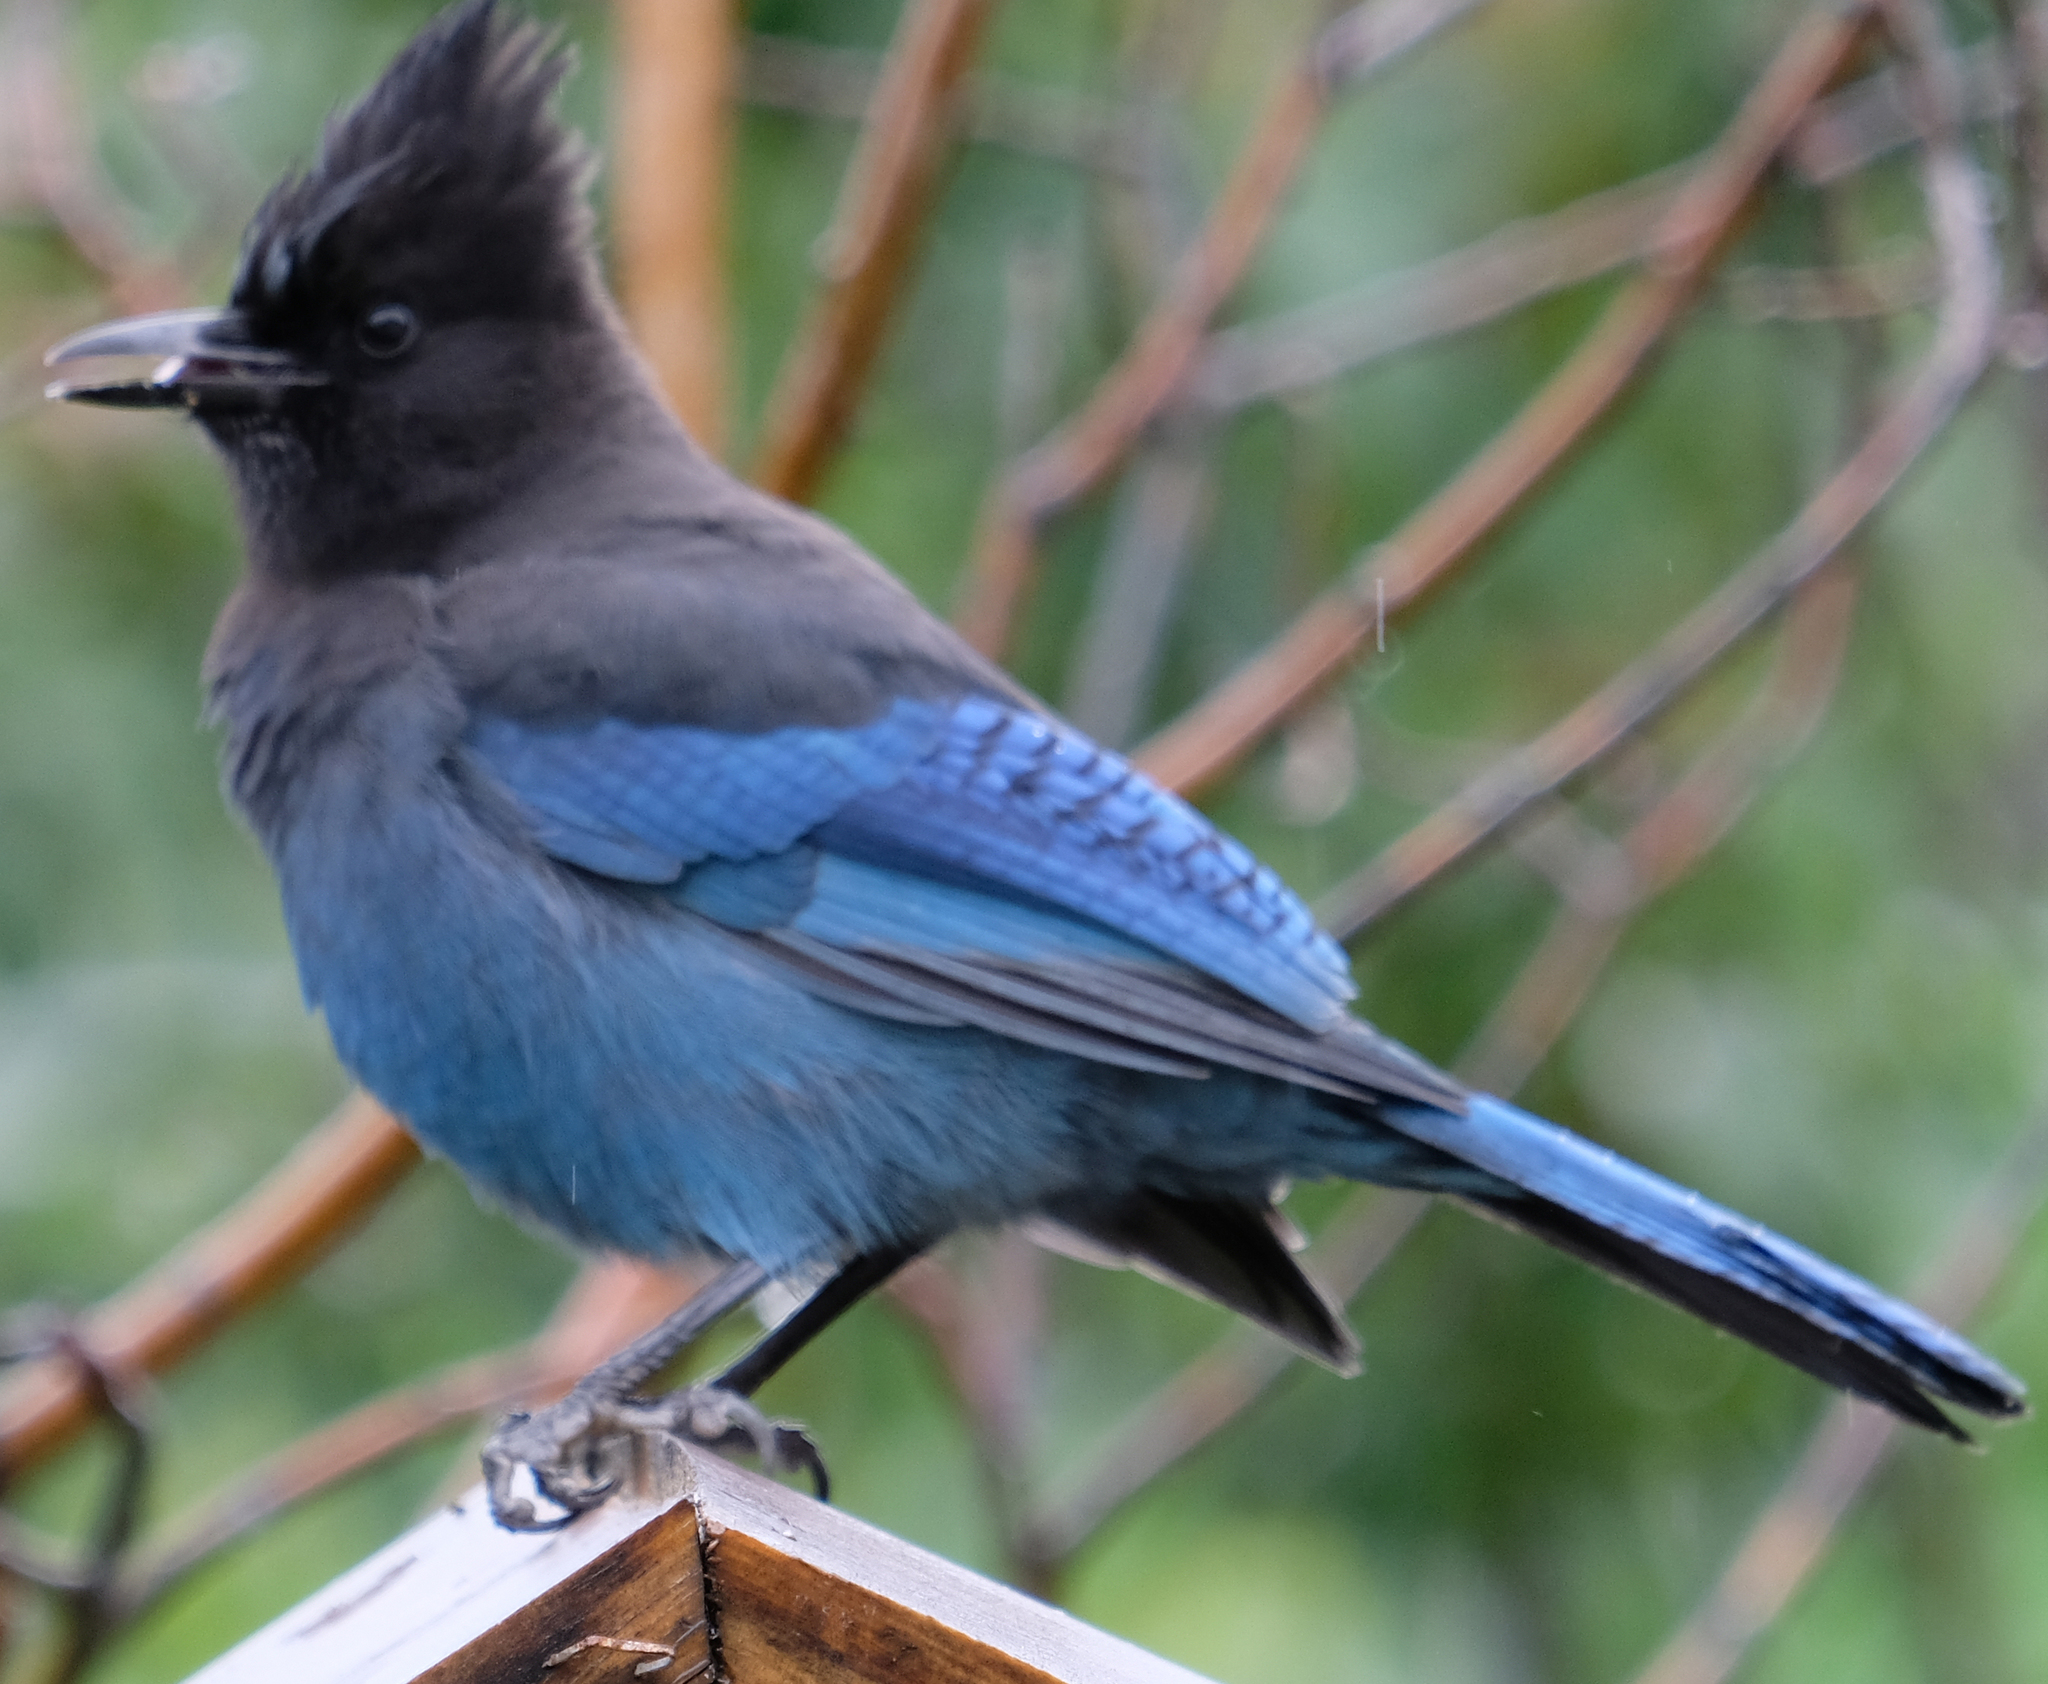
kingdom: Animalia
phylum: Chordata
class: Aves
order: Passeriformes
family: Corvidae
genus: Cyanocitta
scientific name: Cyanocitta stelleri
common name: Steller's jay
